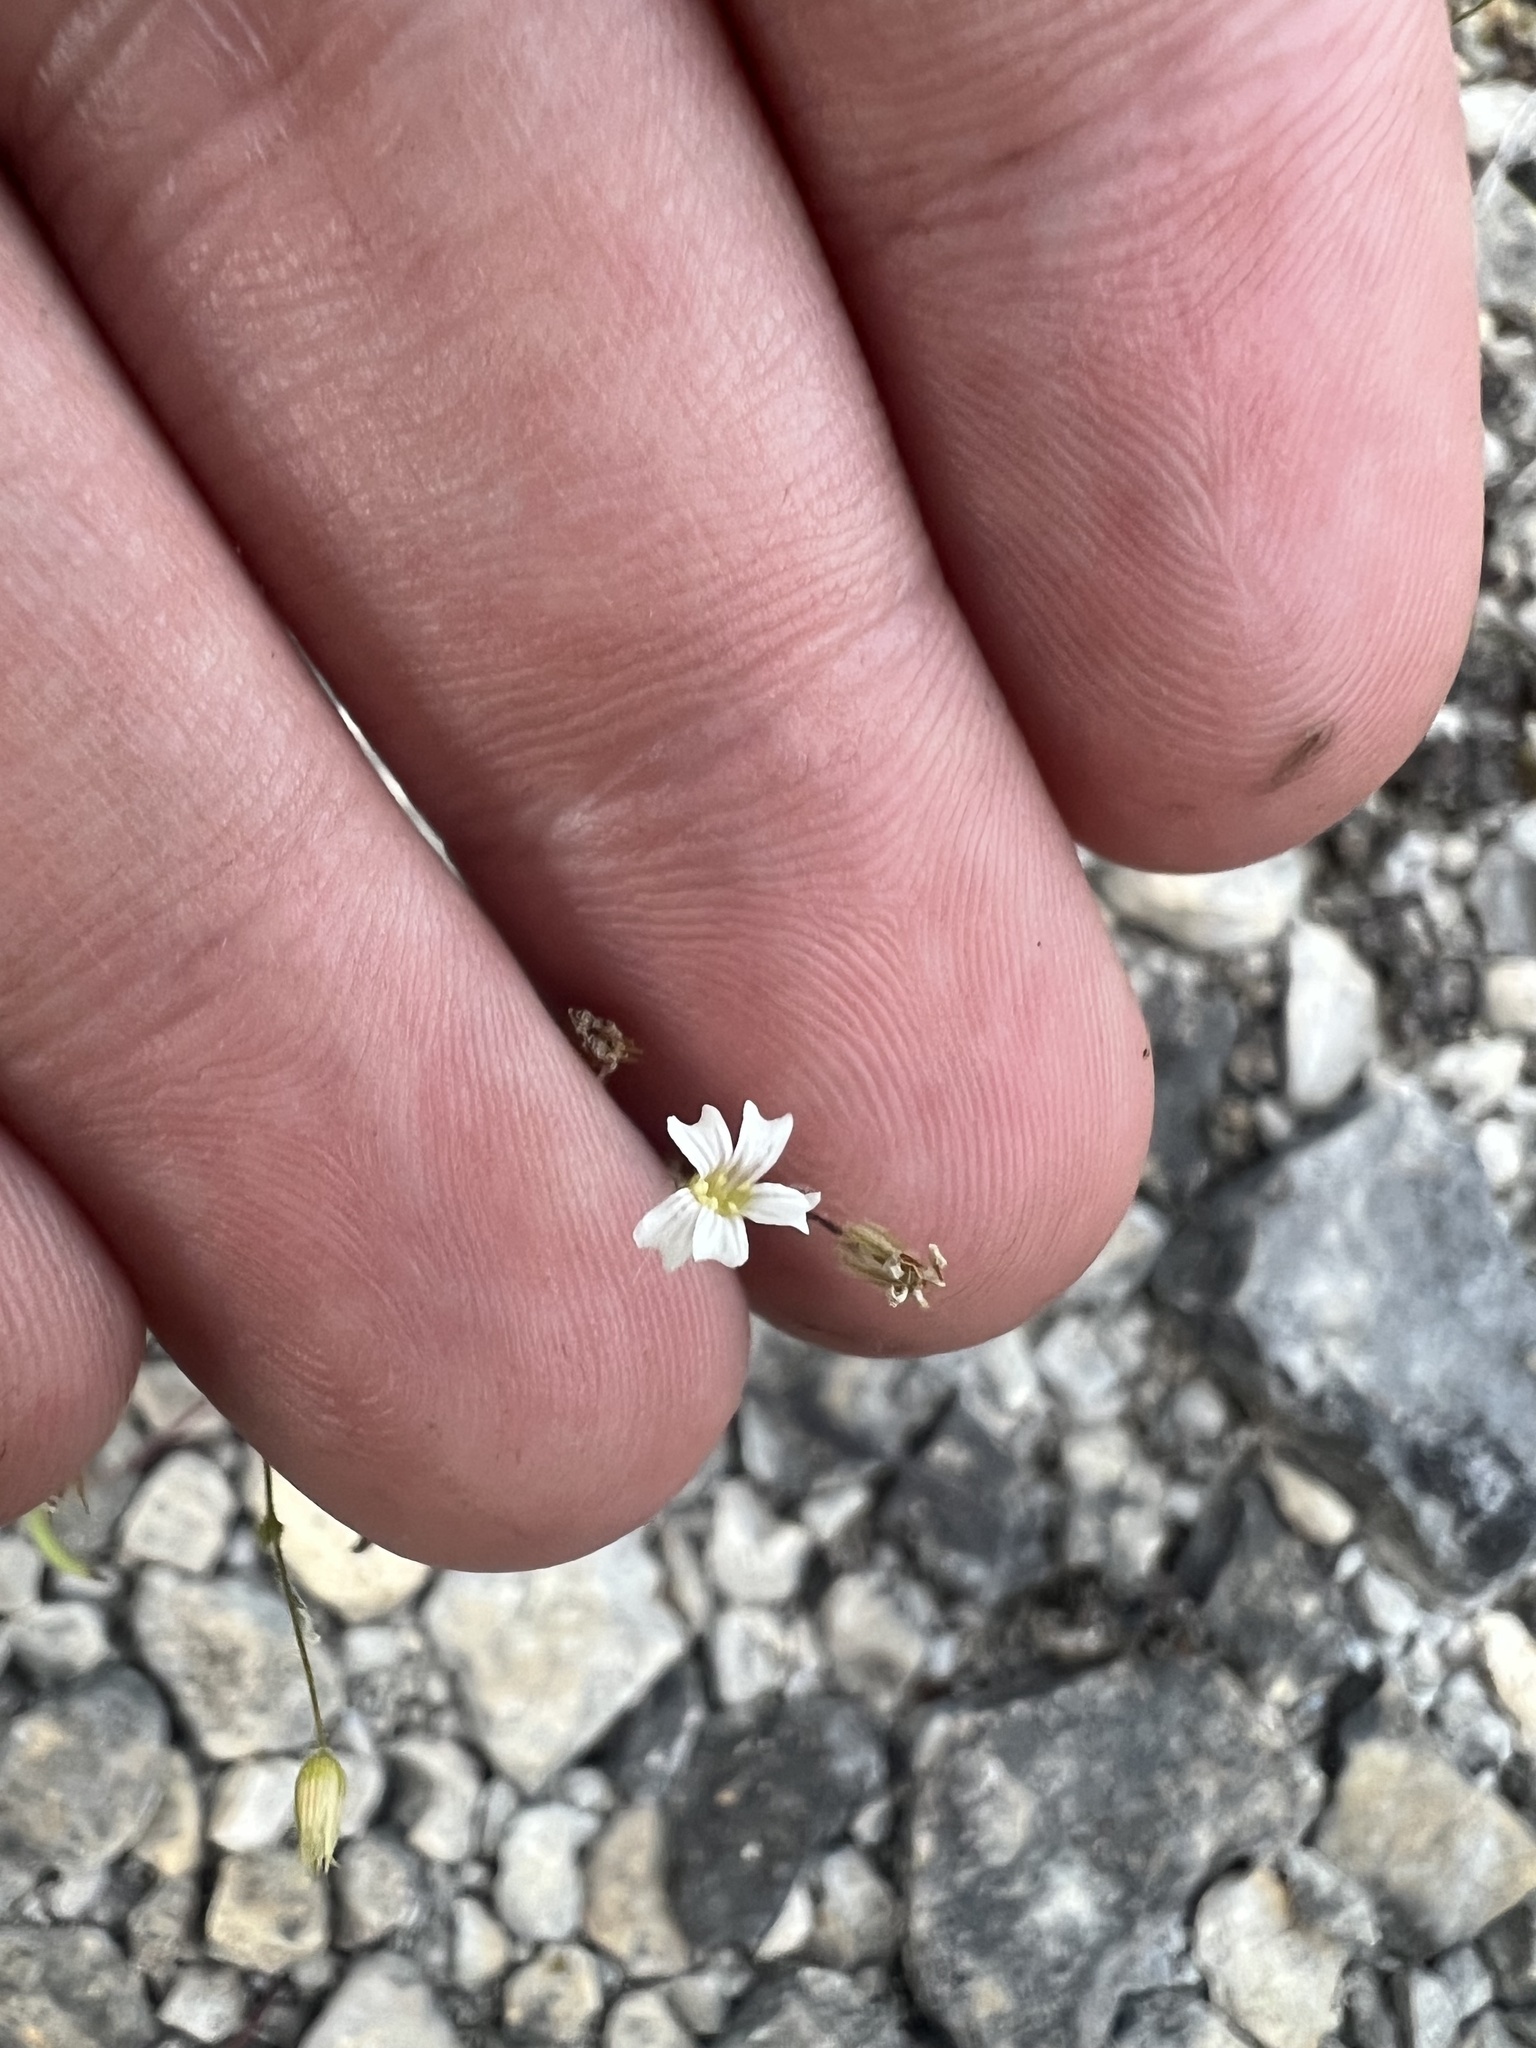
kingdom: Plantae
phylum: Tracheophyta
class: Magnoliopsida
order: Caryophyllales
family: Caryophyllaceae
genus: Mononeuria
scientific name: Mononeuria patula
